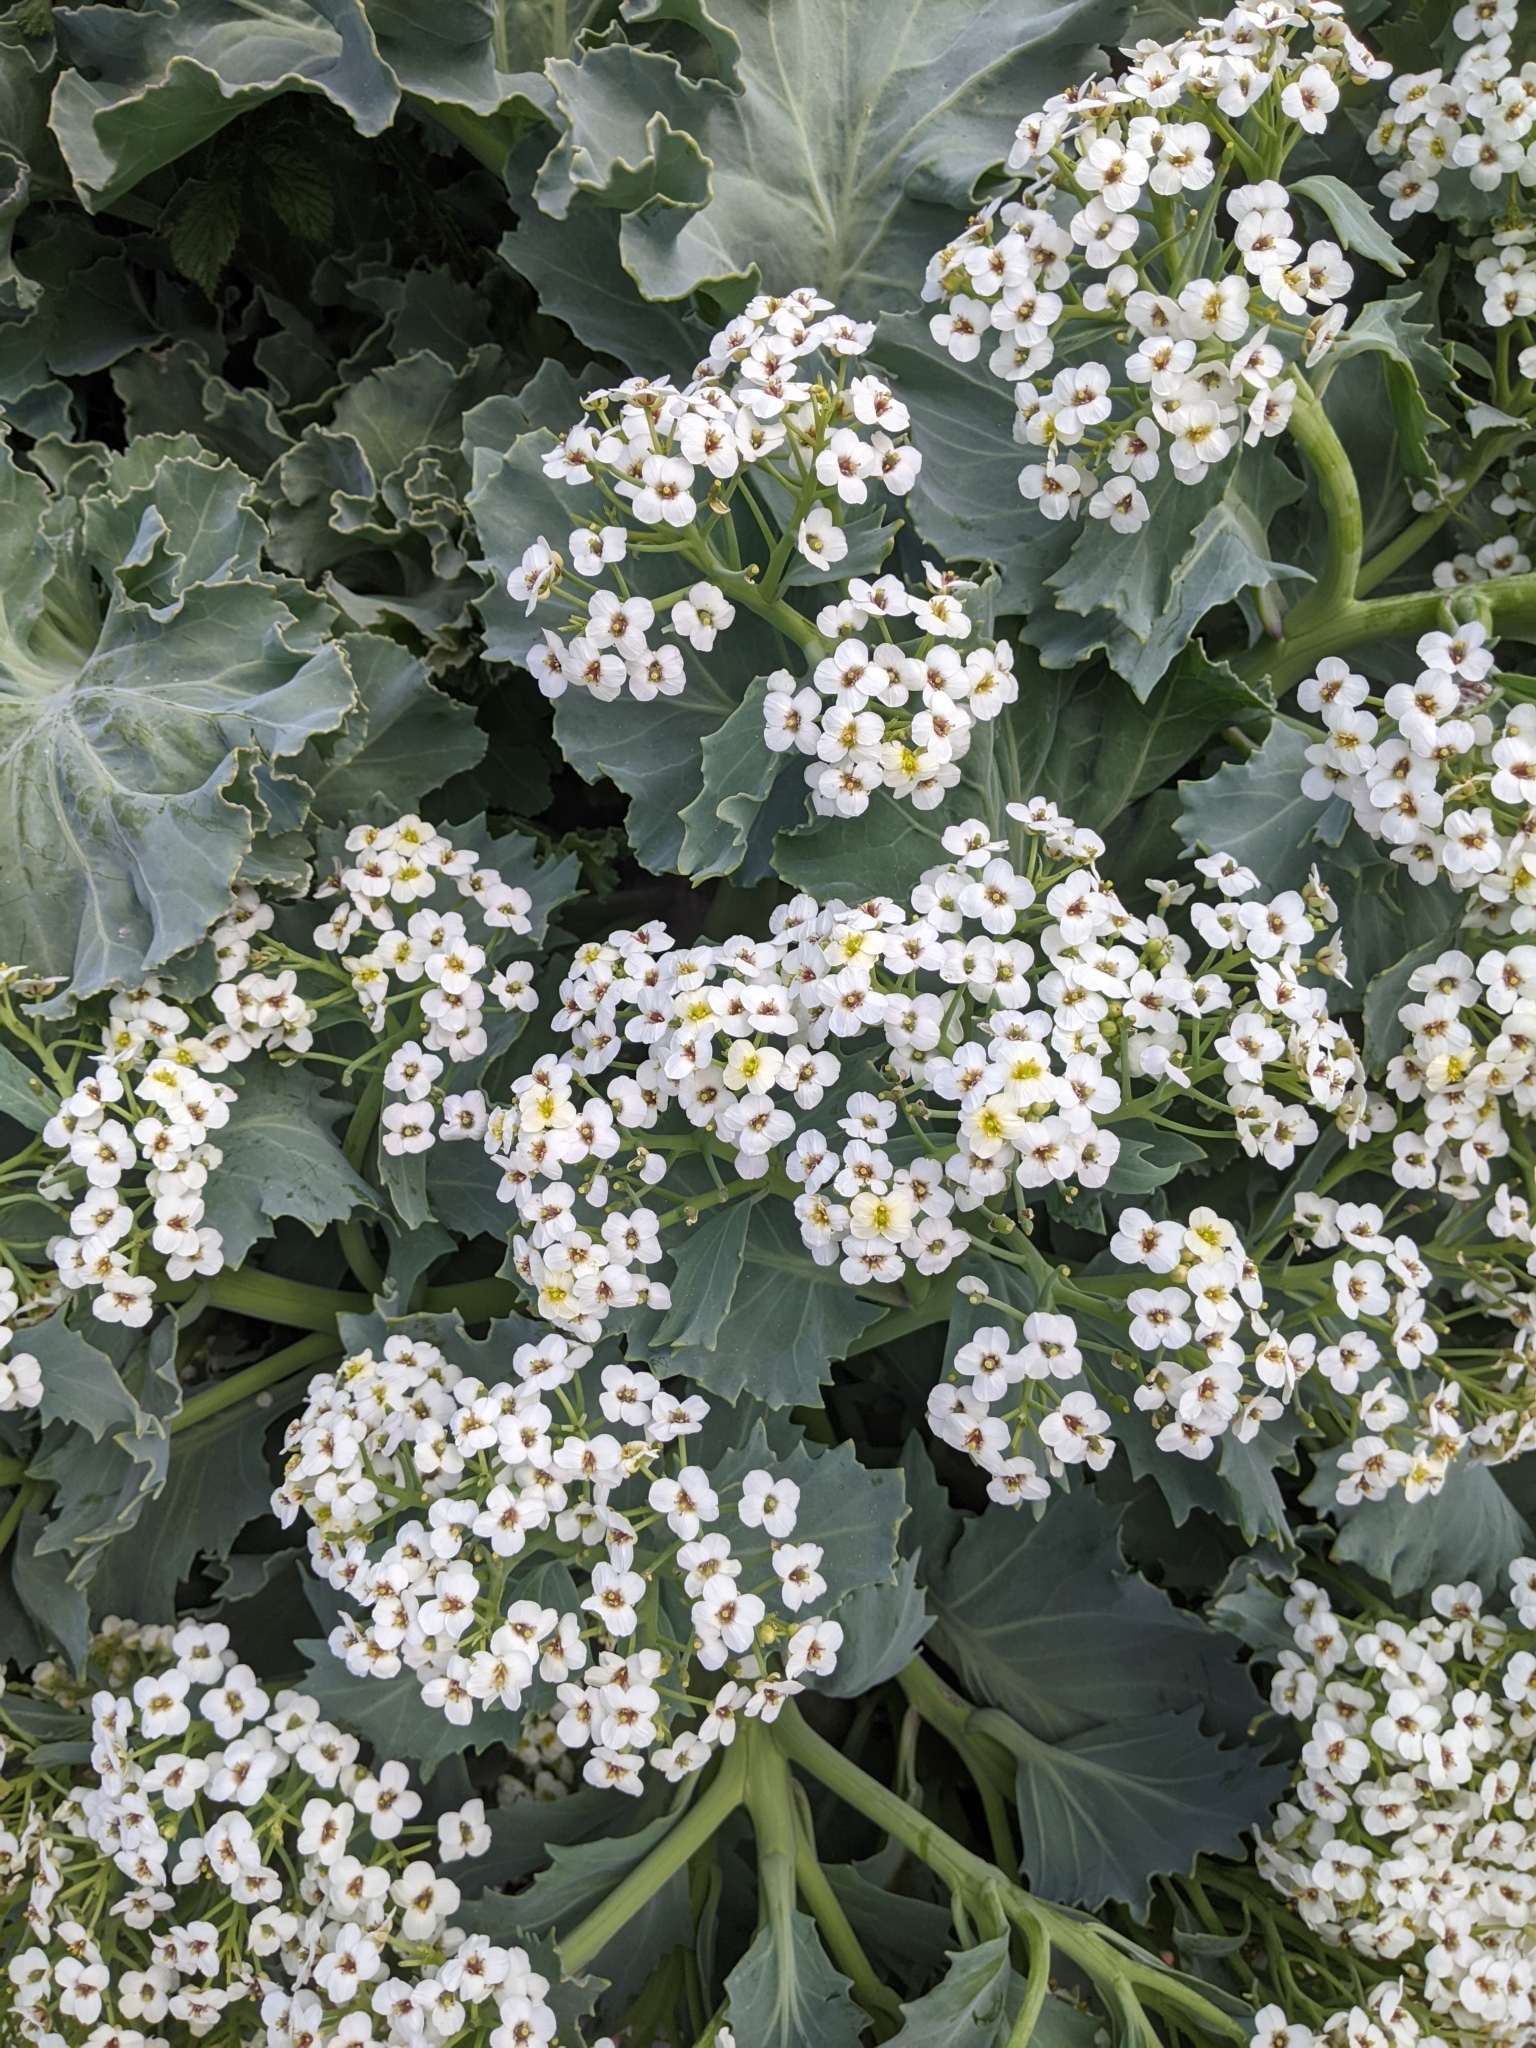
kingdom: Plantae
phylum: Tracheophyta
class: Magnoliopsida
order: Brassicales
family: Brassicaceae
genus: Crambe
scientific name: Crambe maritima
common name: Sea-kale
